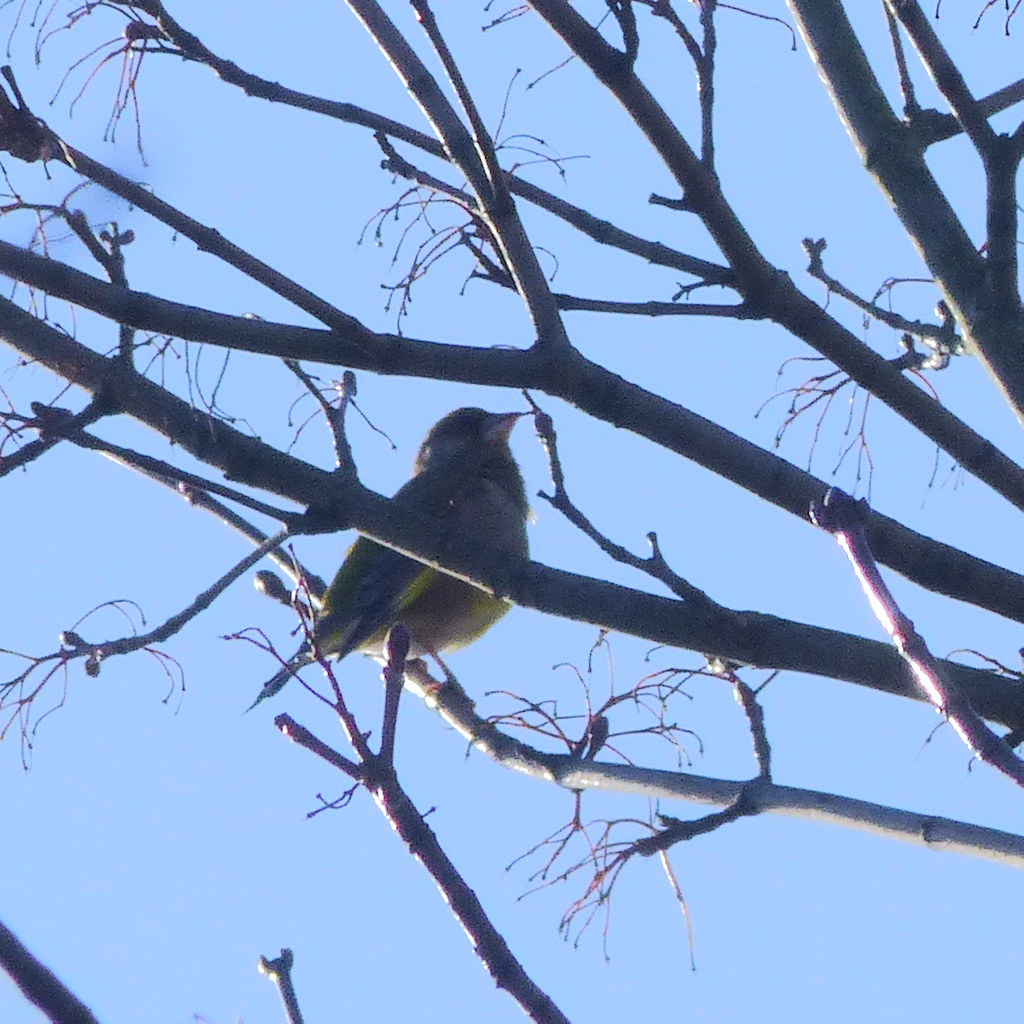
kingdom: Plantae
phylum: Tracheophyta
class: Liliopsida
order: Poales
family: Poaceae
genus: Chloris
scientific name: Chloris chloris
